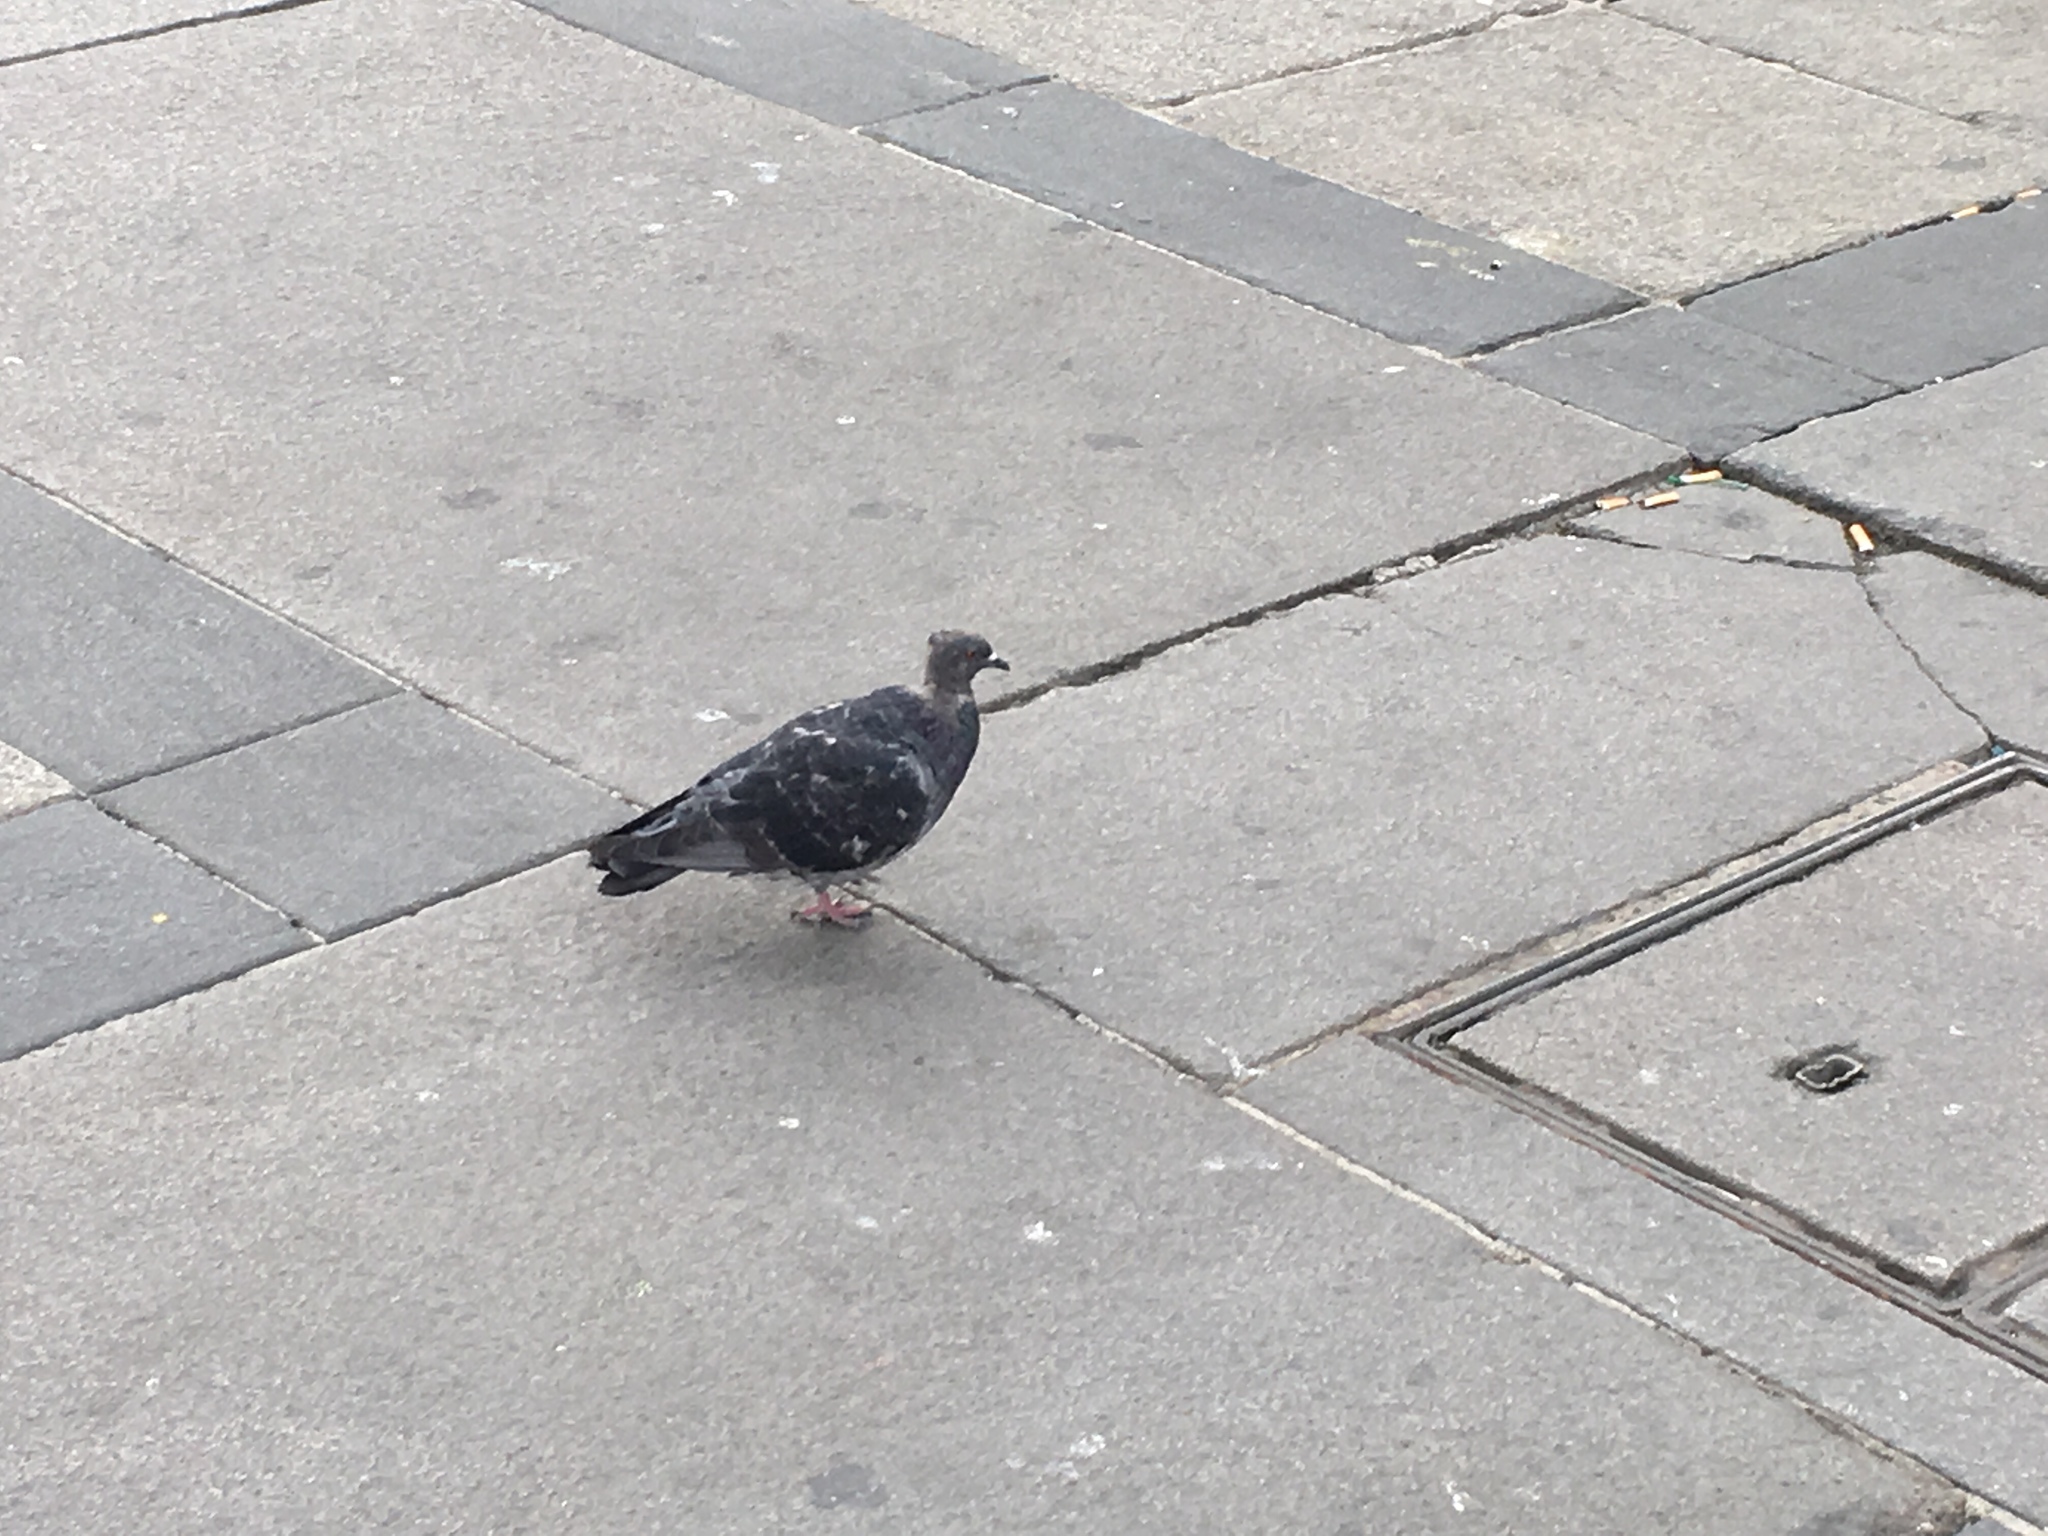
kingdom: Animalia
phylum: Chordata
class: Aves
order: Columbiformes
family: Columbidae
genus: Columba
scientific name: Columba livia
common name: Rock pigeon
